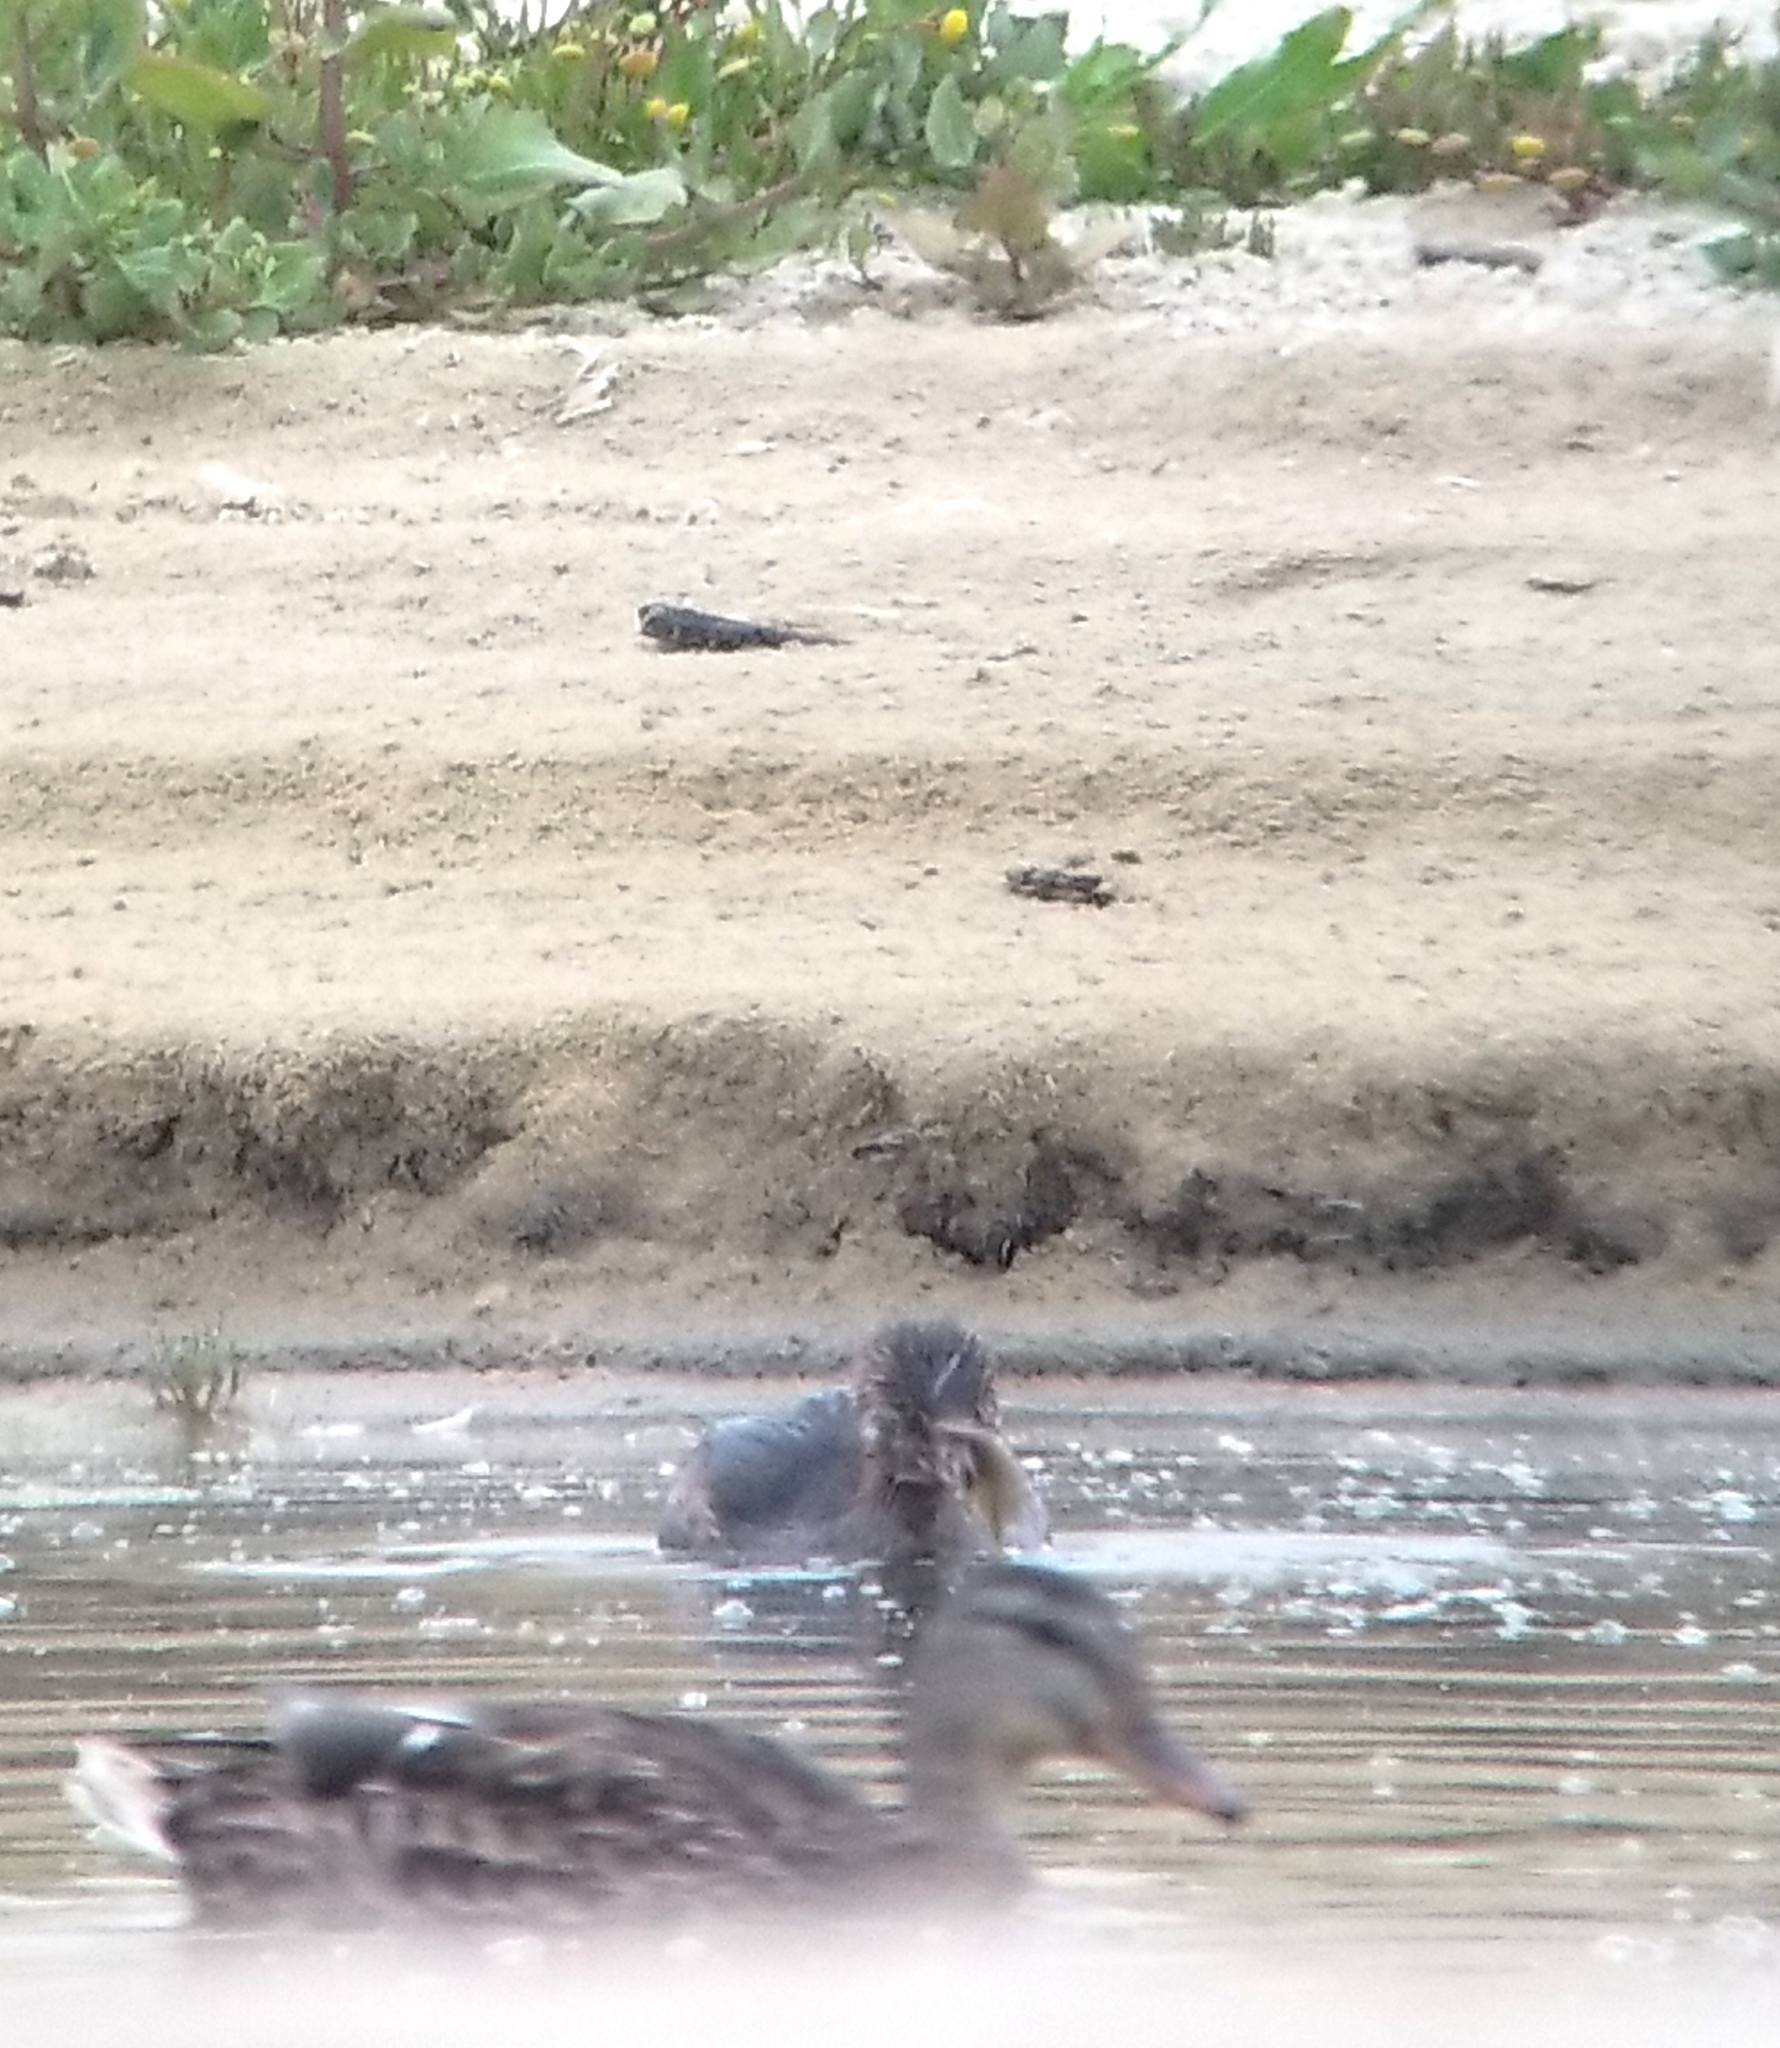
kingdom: Animalia
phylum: Chordata
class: Aves
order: Podicipediformes
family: Podicipedidae
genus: Podilymbus
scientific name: Podilymbus podiceps
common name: Pied-billed grebe
